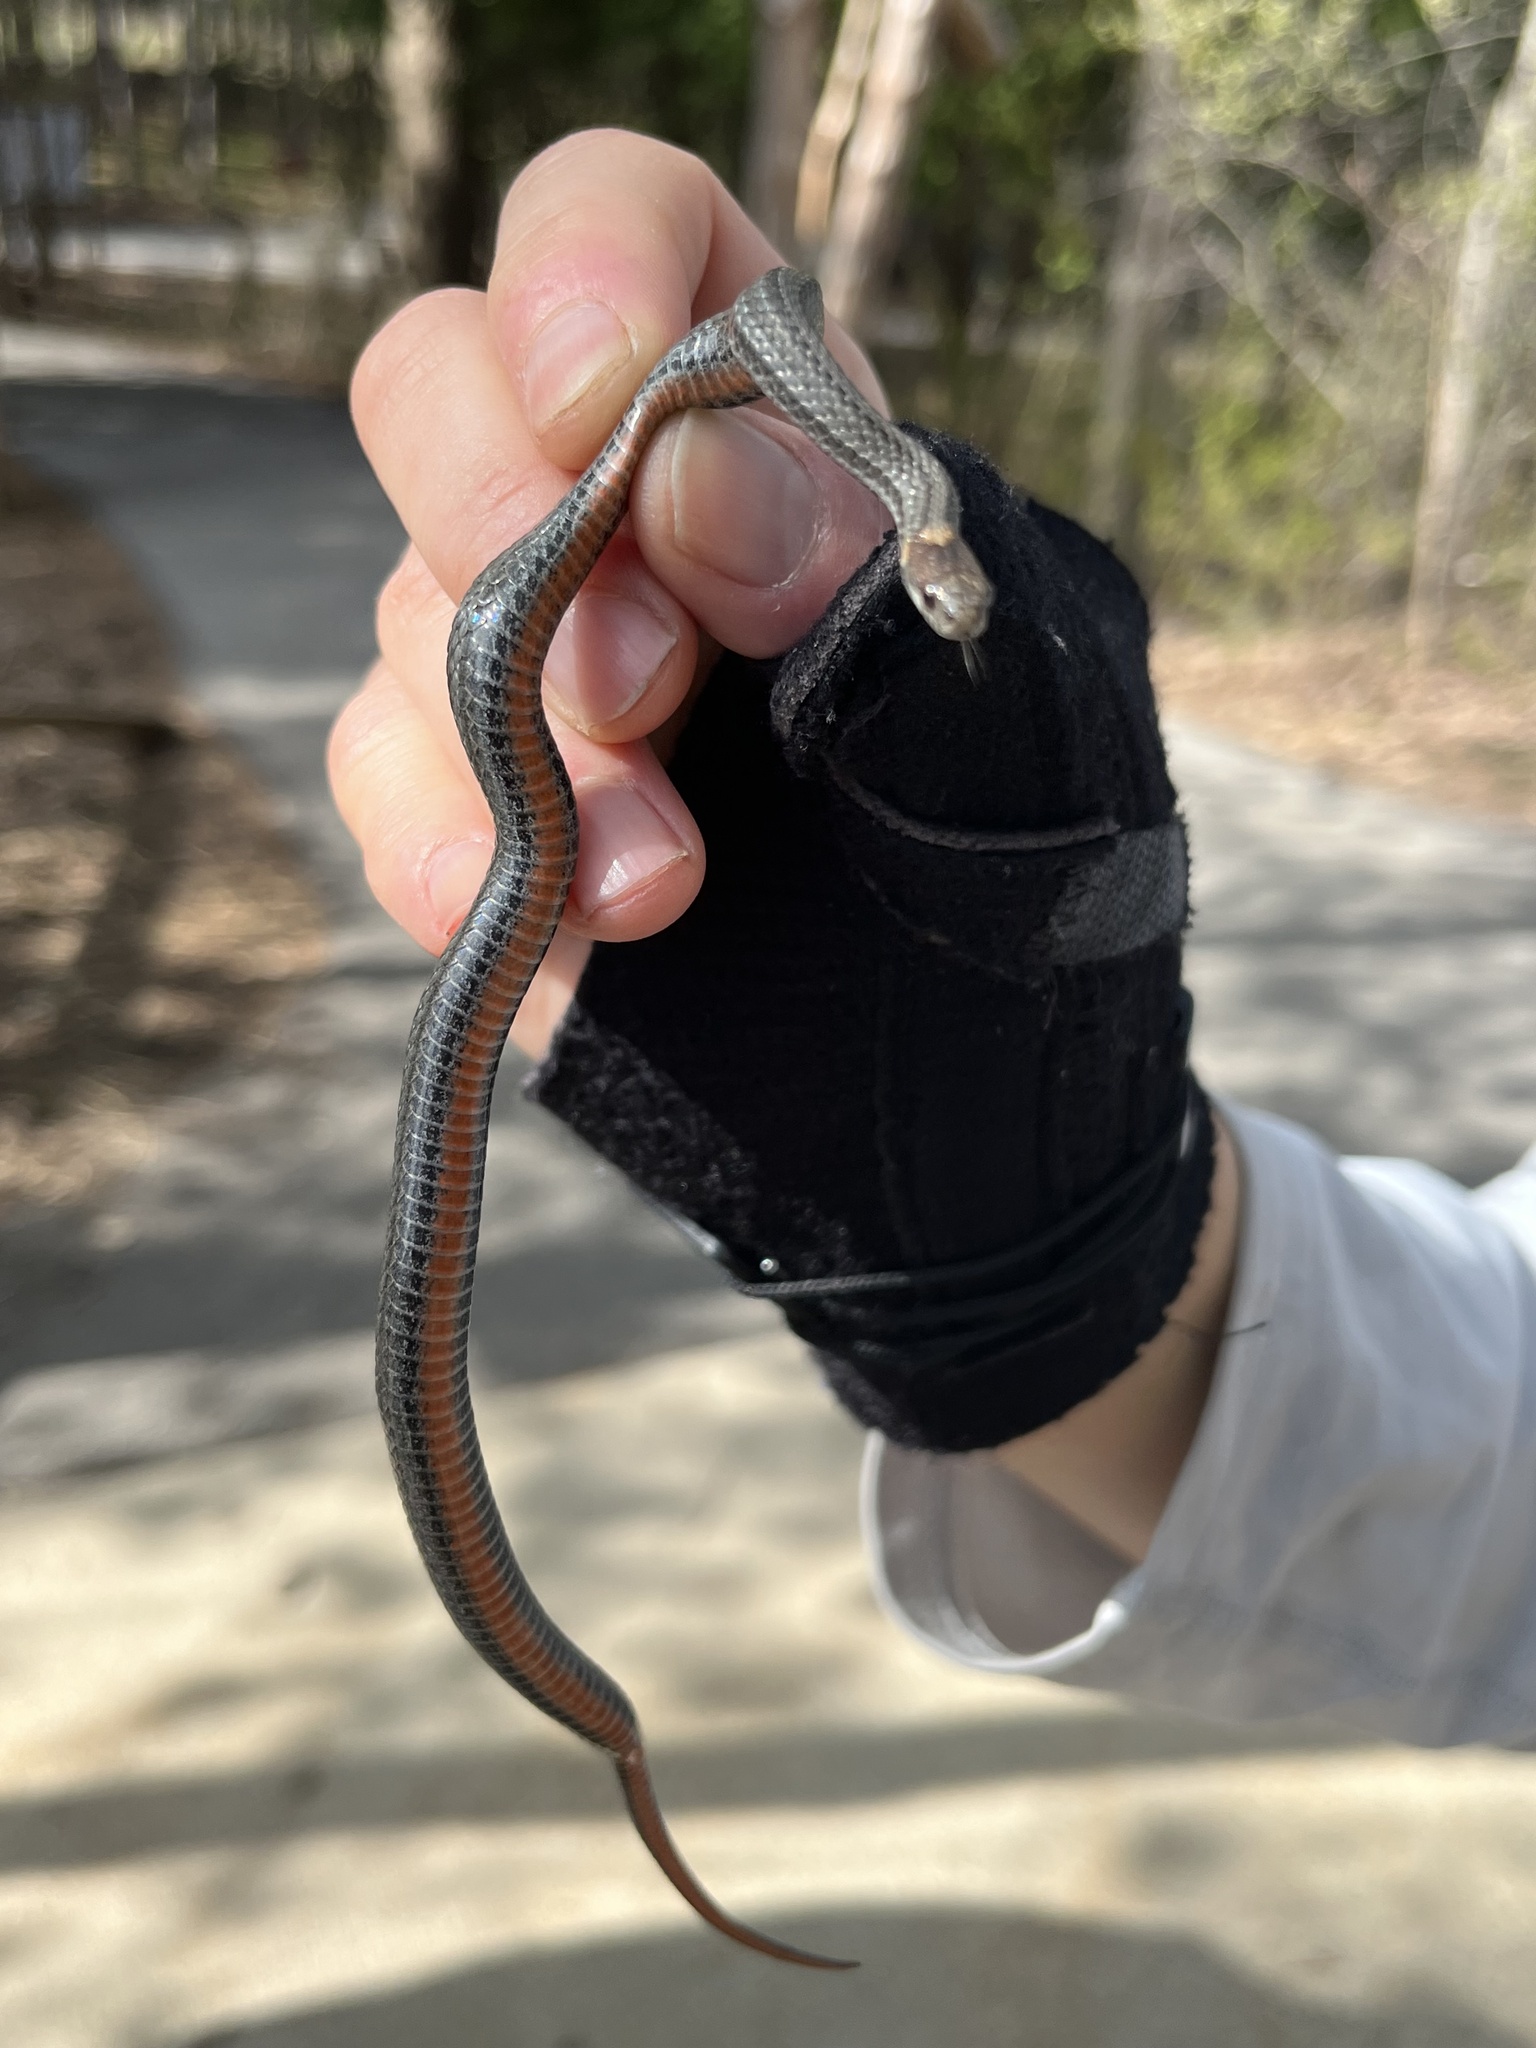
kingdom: Animalia
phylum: Chordata
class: Squamata
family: Colubridae
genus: Storeria
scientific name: Storeria occipitomaculata
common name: Redbelly snake
